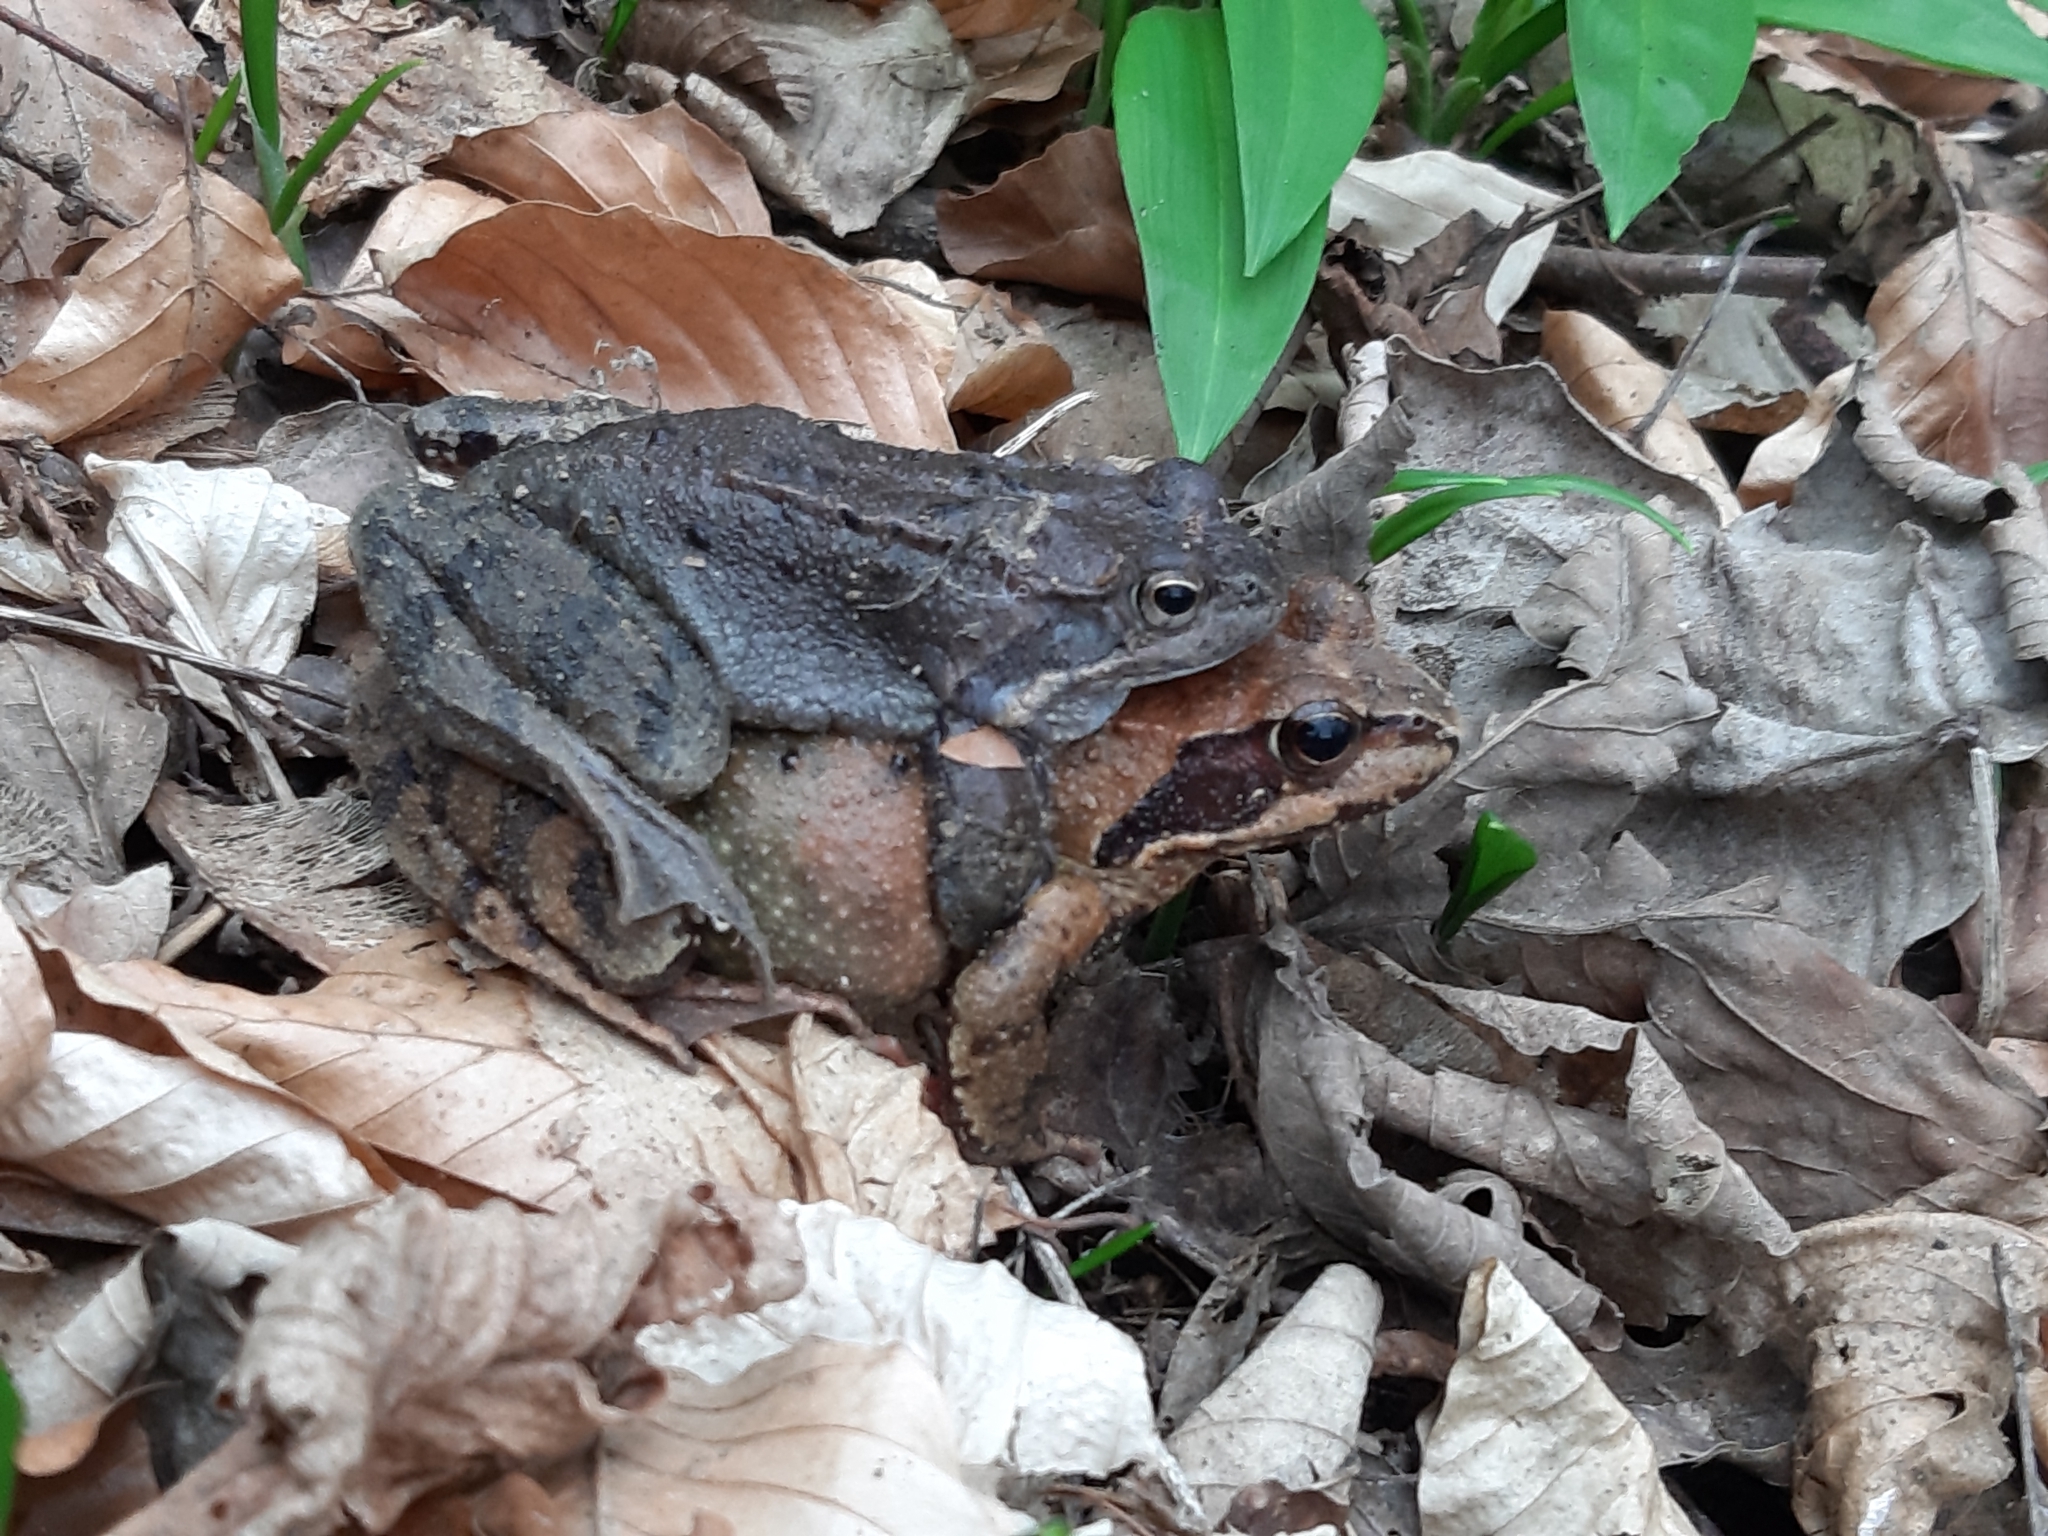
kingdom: Animalia
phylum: Chordata
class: Amphibia
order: Anura
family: Ranidae
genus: Rana
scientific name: Rana temporaria
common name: Common frog
